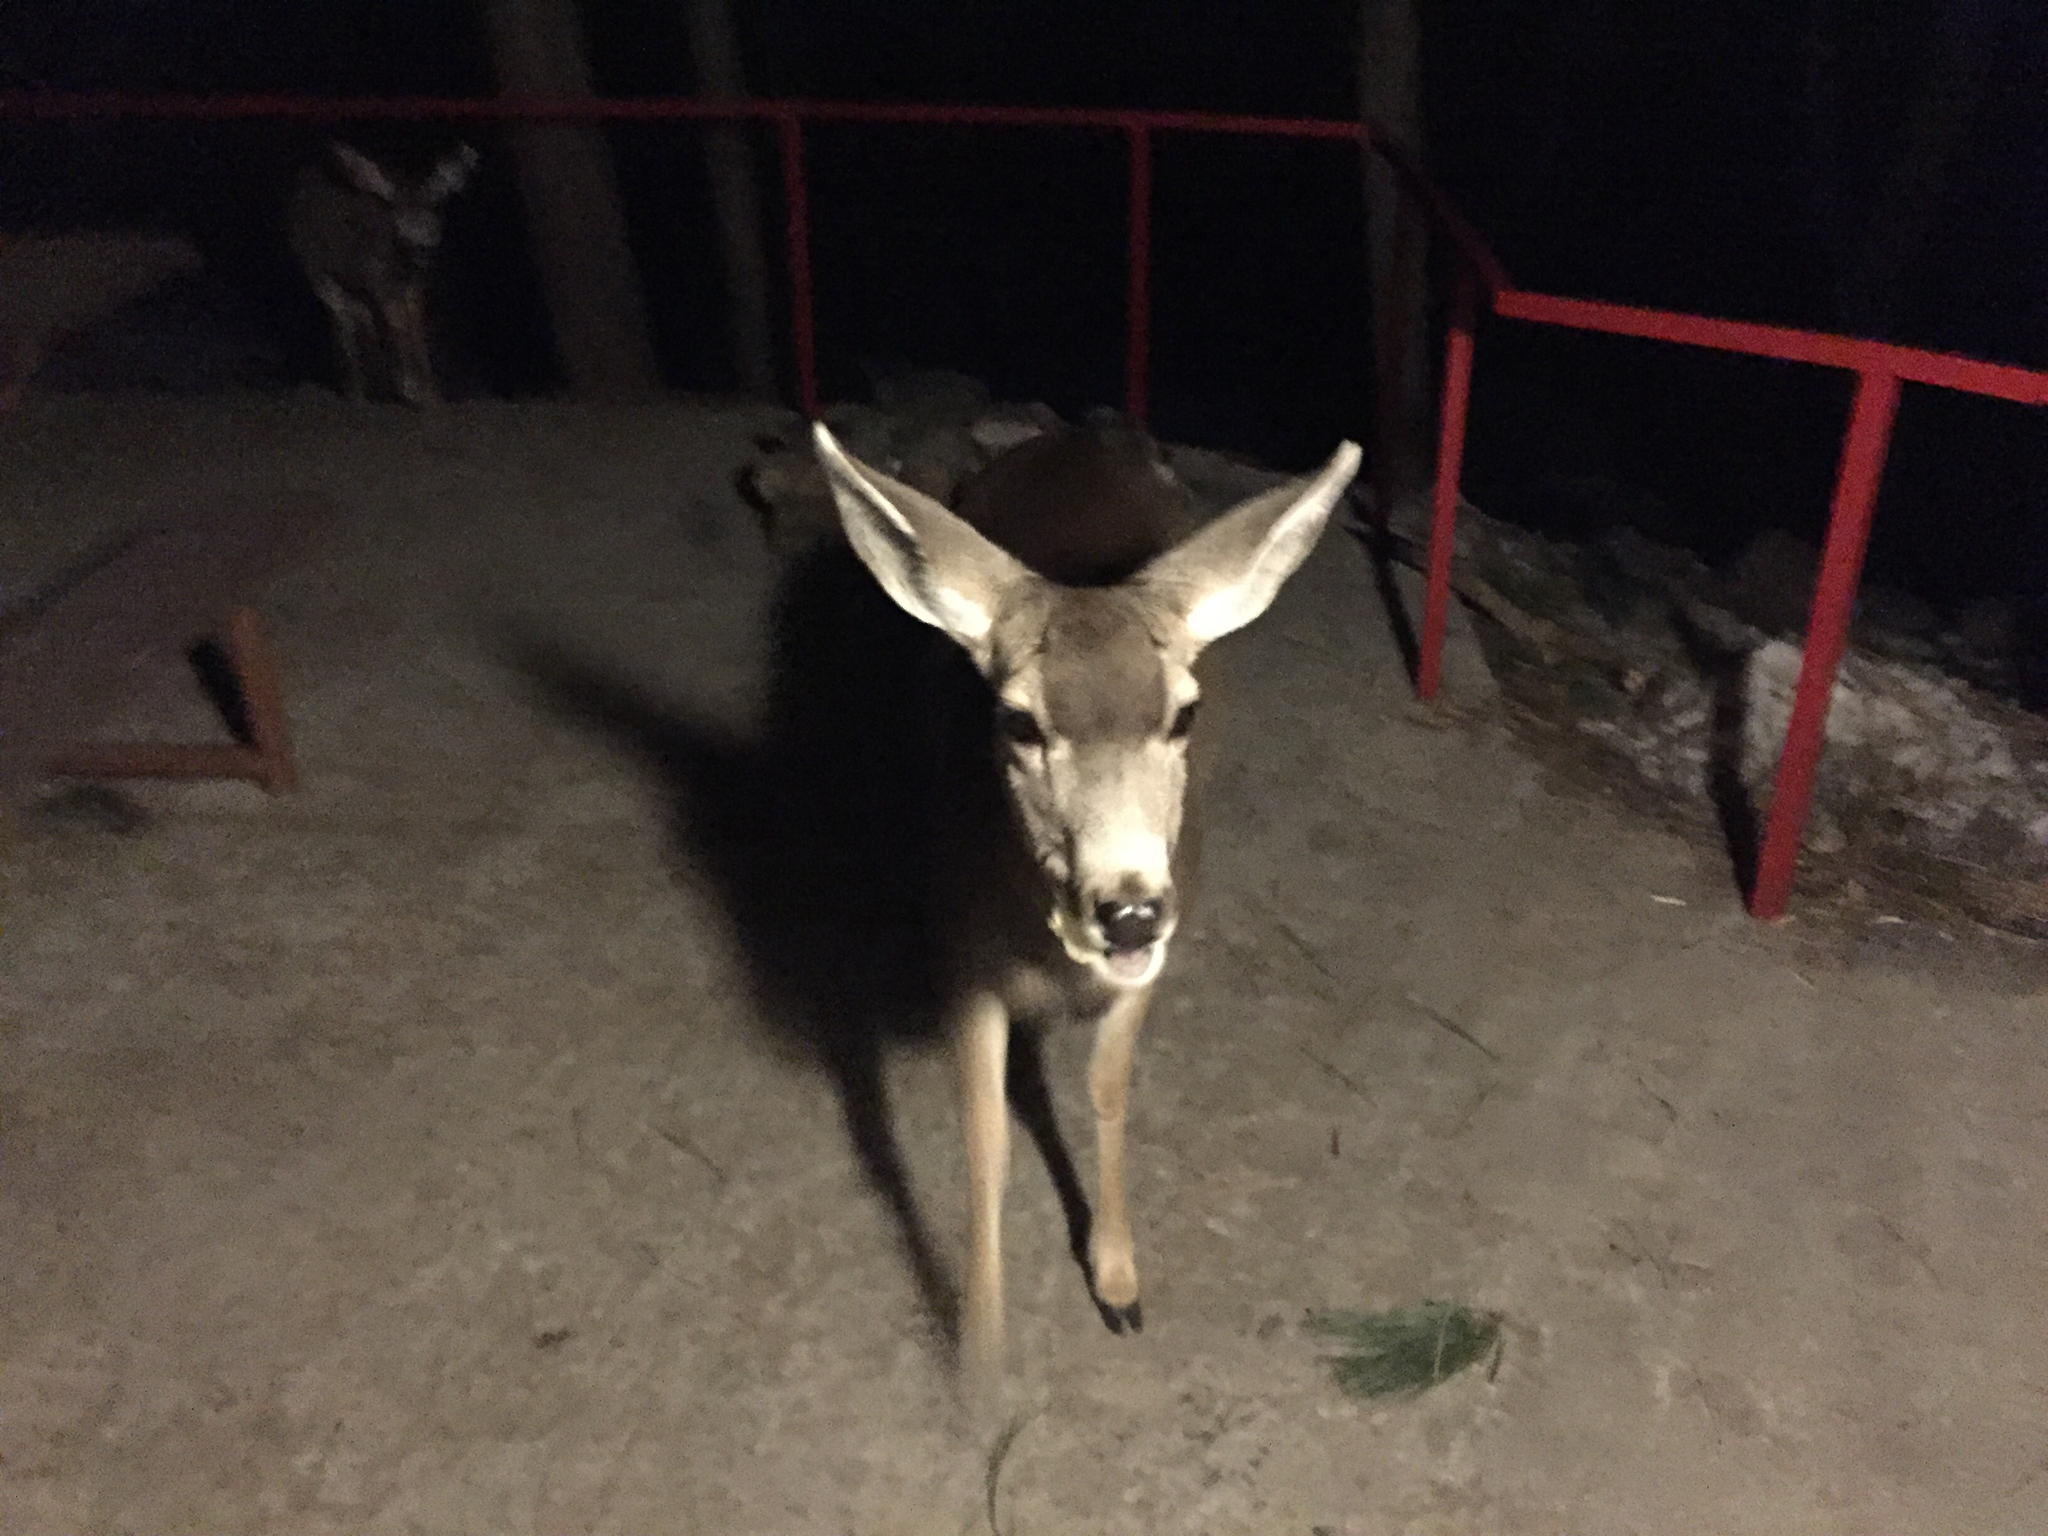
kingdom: Animalia
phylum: Chordata
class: Mammalia
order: Artiodactyla
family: Cervidae
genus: Odocoileus
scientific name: Odocoileus hemionus
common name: Mule deer
